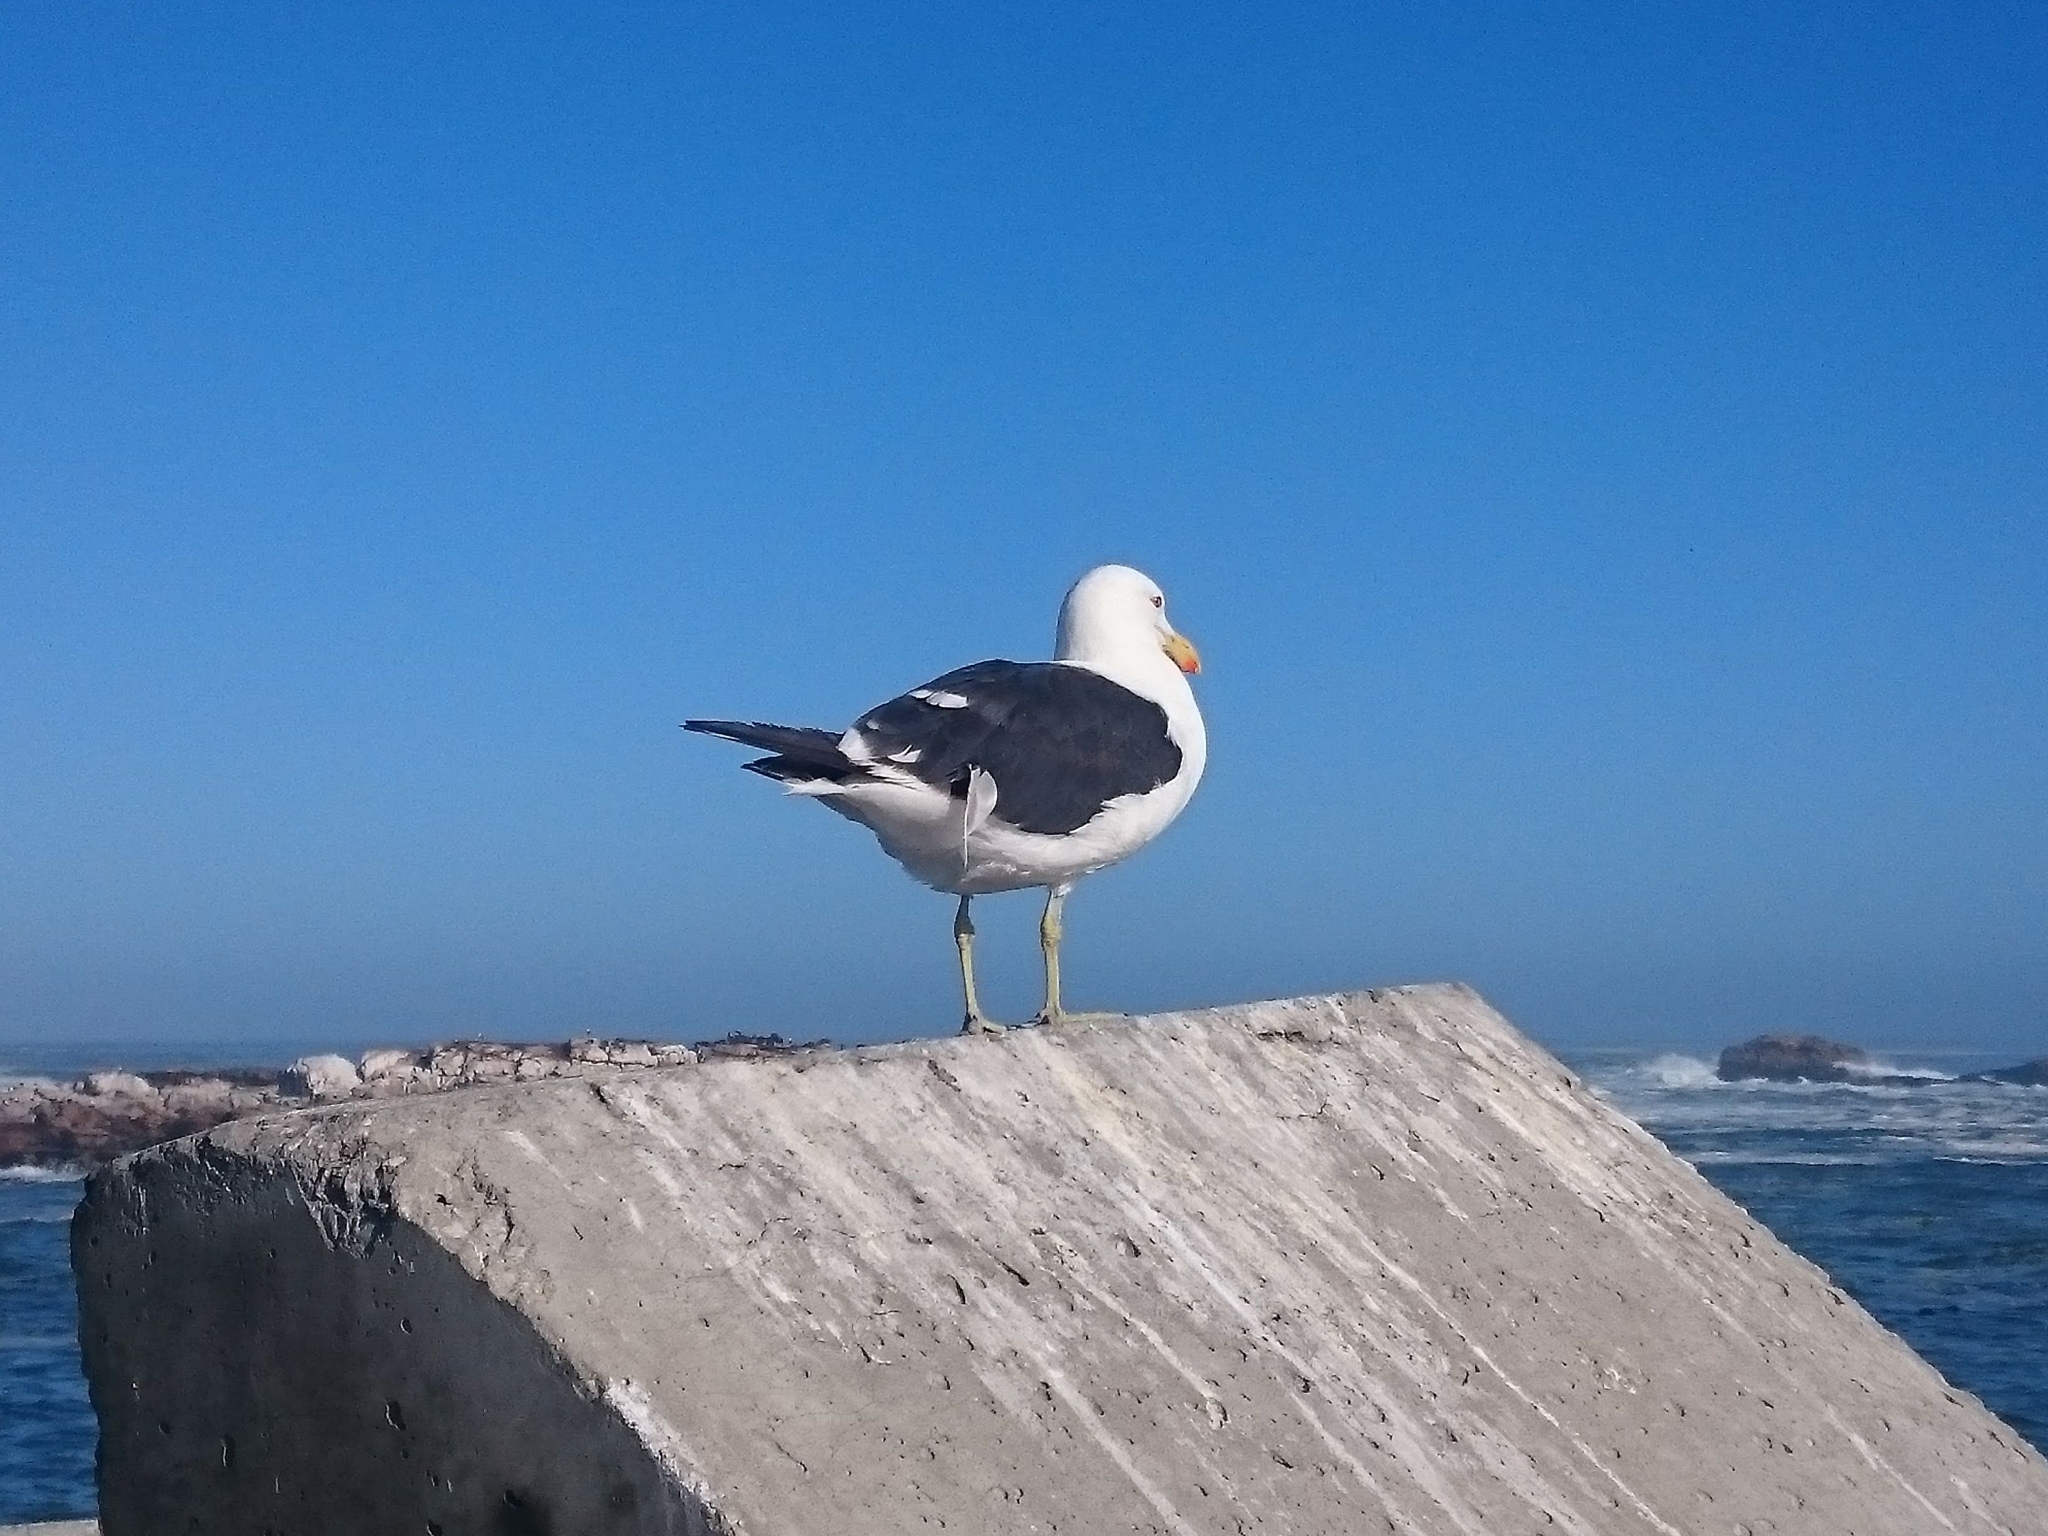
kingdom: Animalia
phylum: Chordata
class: Aves
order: Charadriiformes
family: Laridae
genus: Larus
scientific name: Larus dominicanus
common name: Kelp gull
